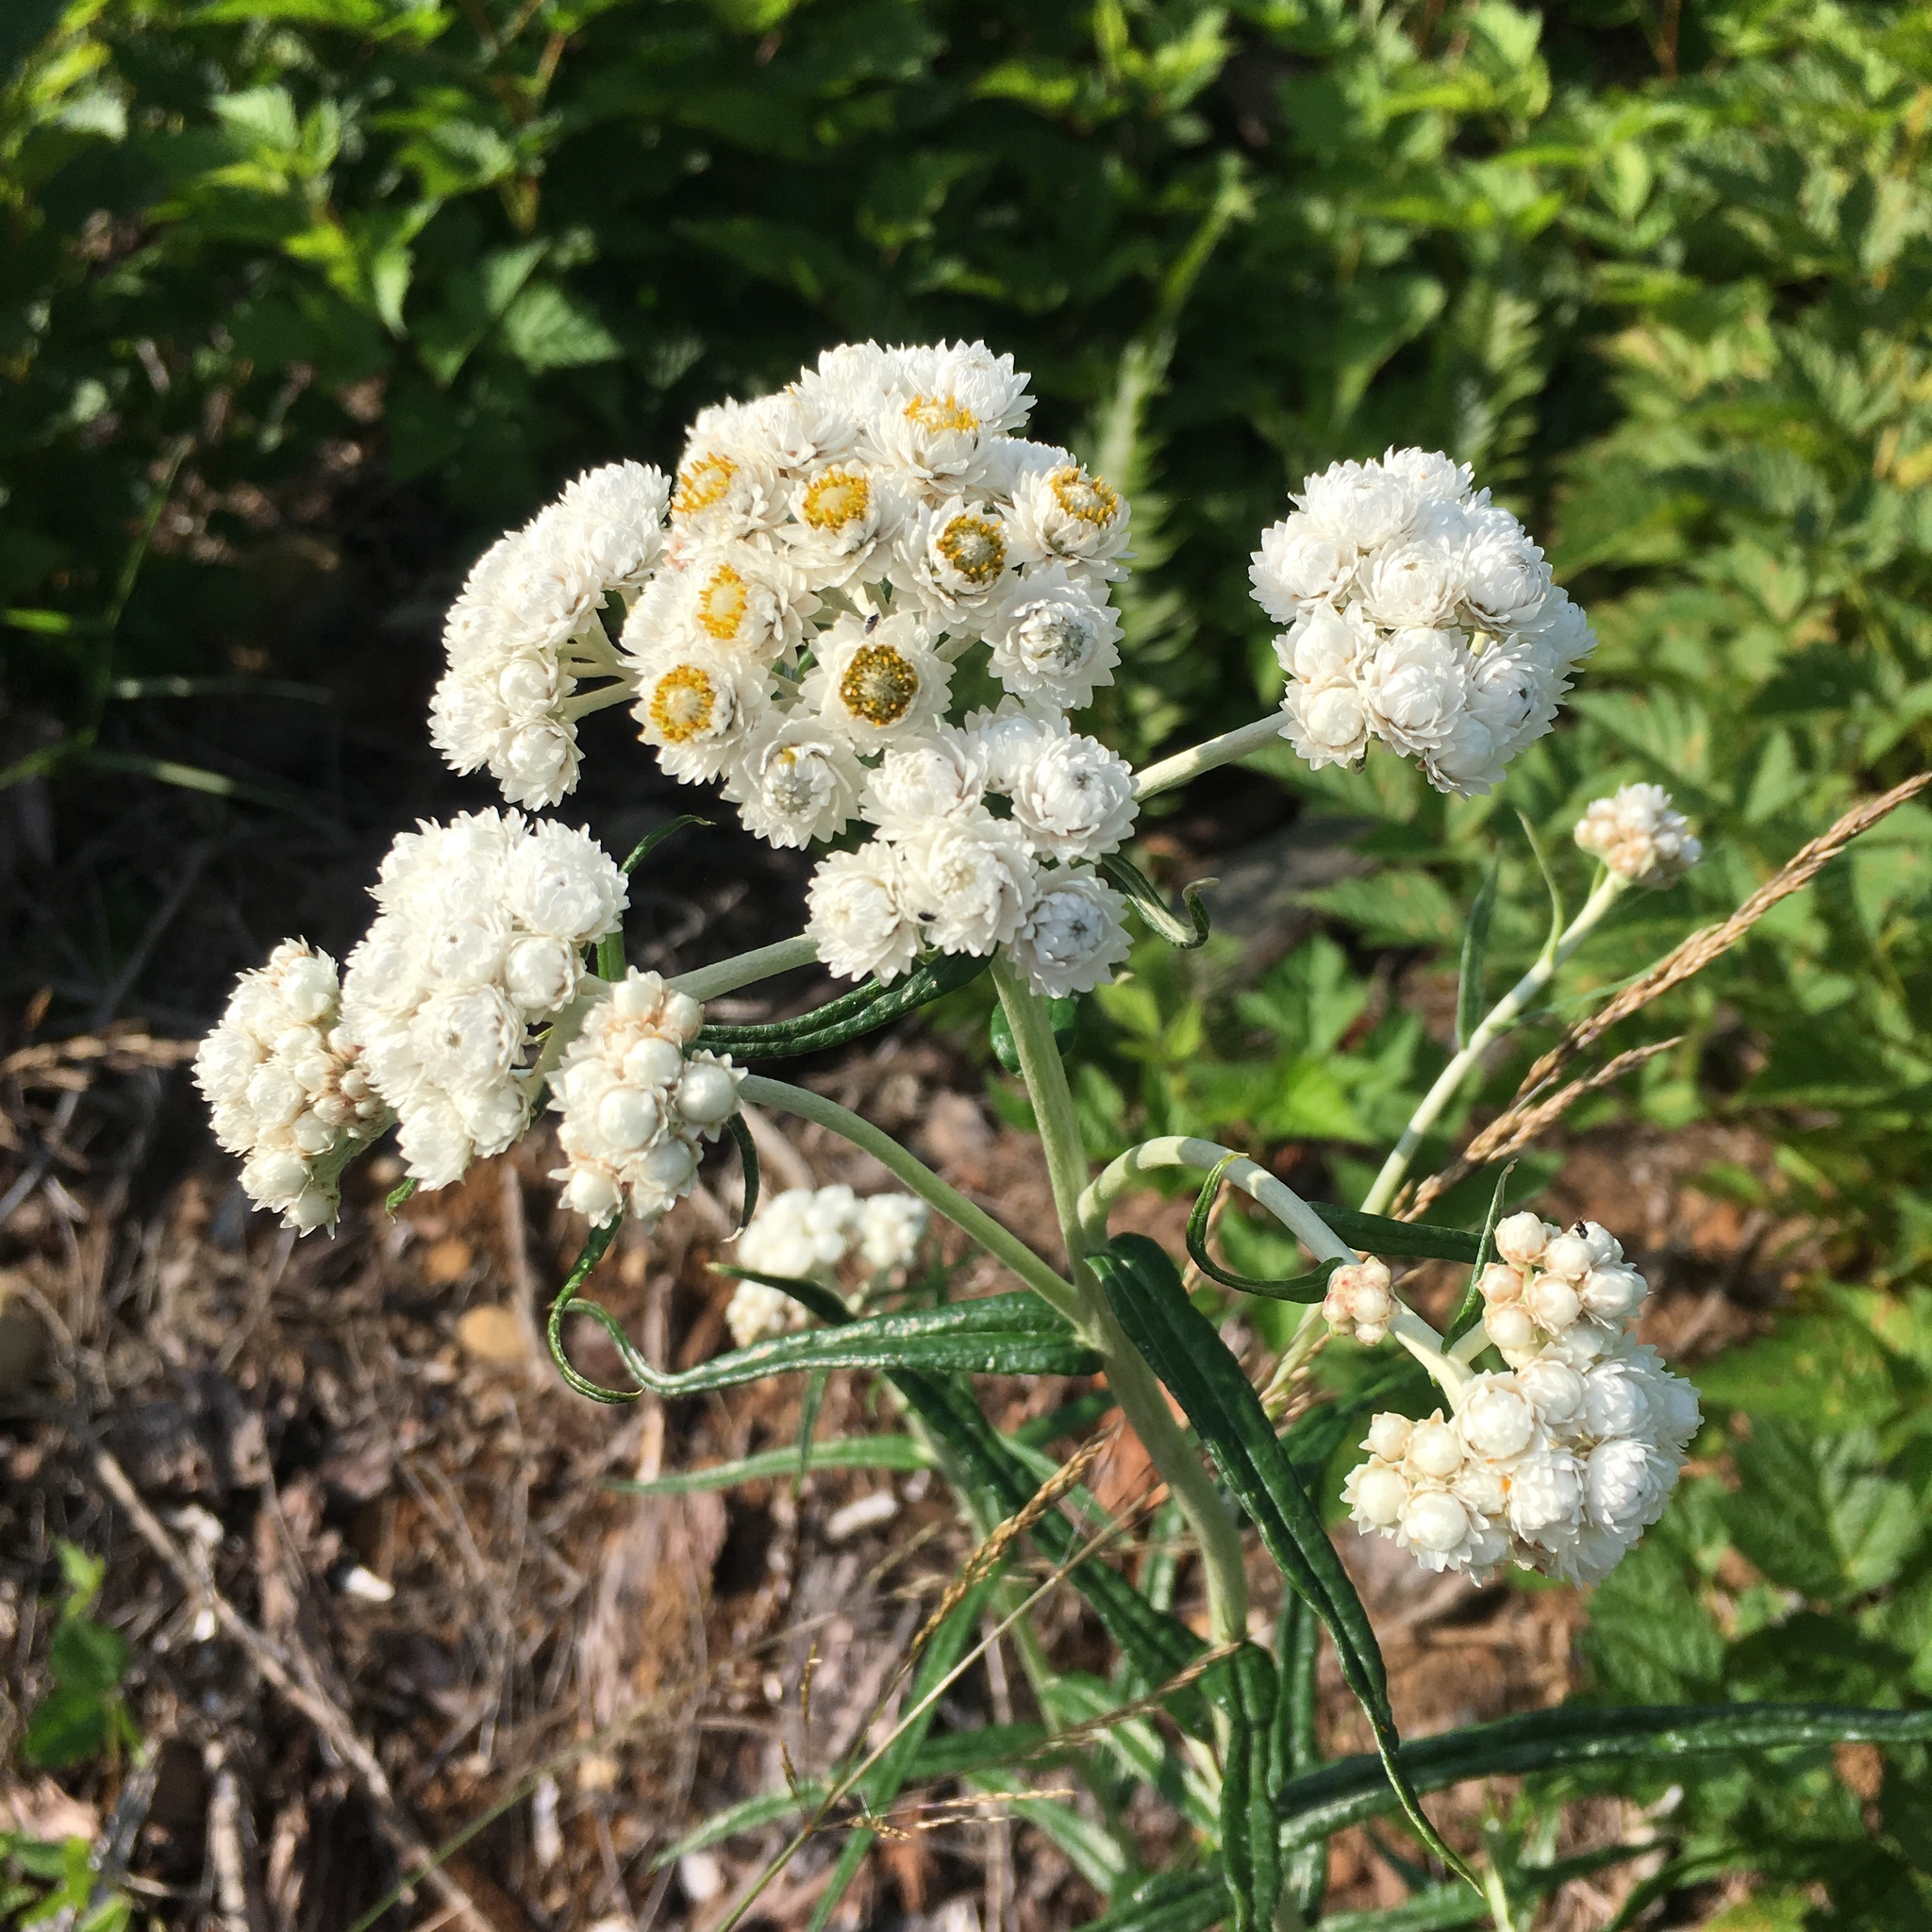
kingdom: Plantae
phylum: Tracheophyta
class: Magnoliopsida
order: Asterales
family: Asteraceae
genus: Anaphalis
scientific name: Anaphalis margaritacea
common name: Pearly everlasting
